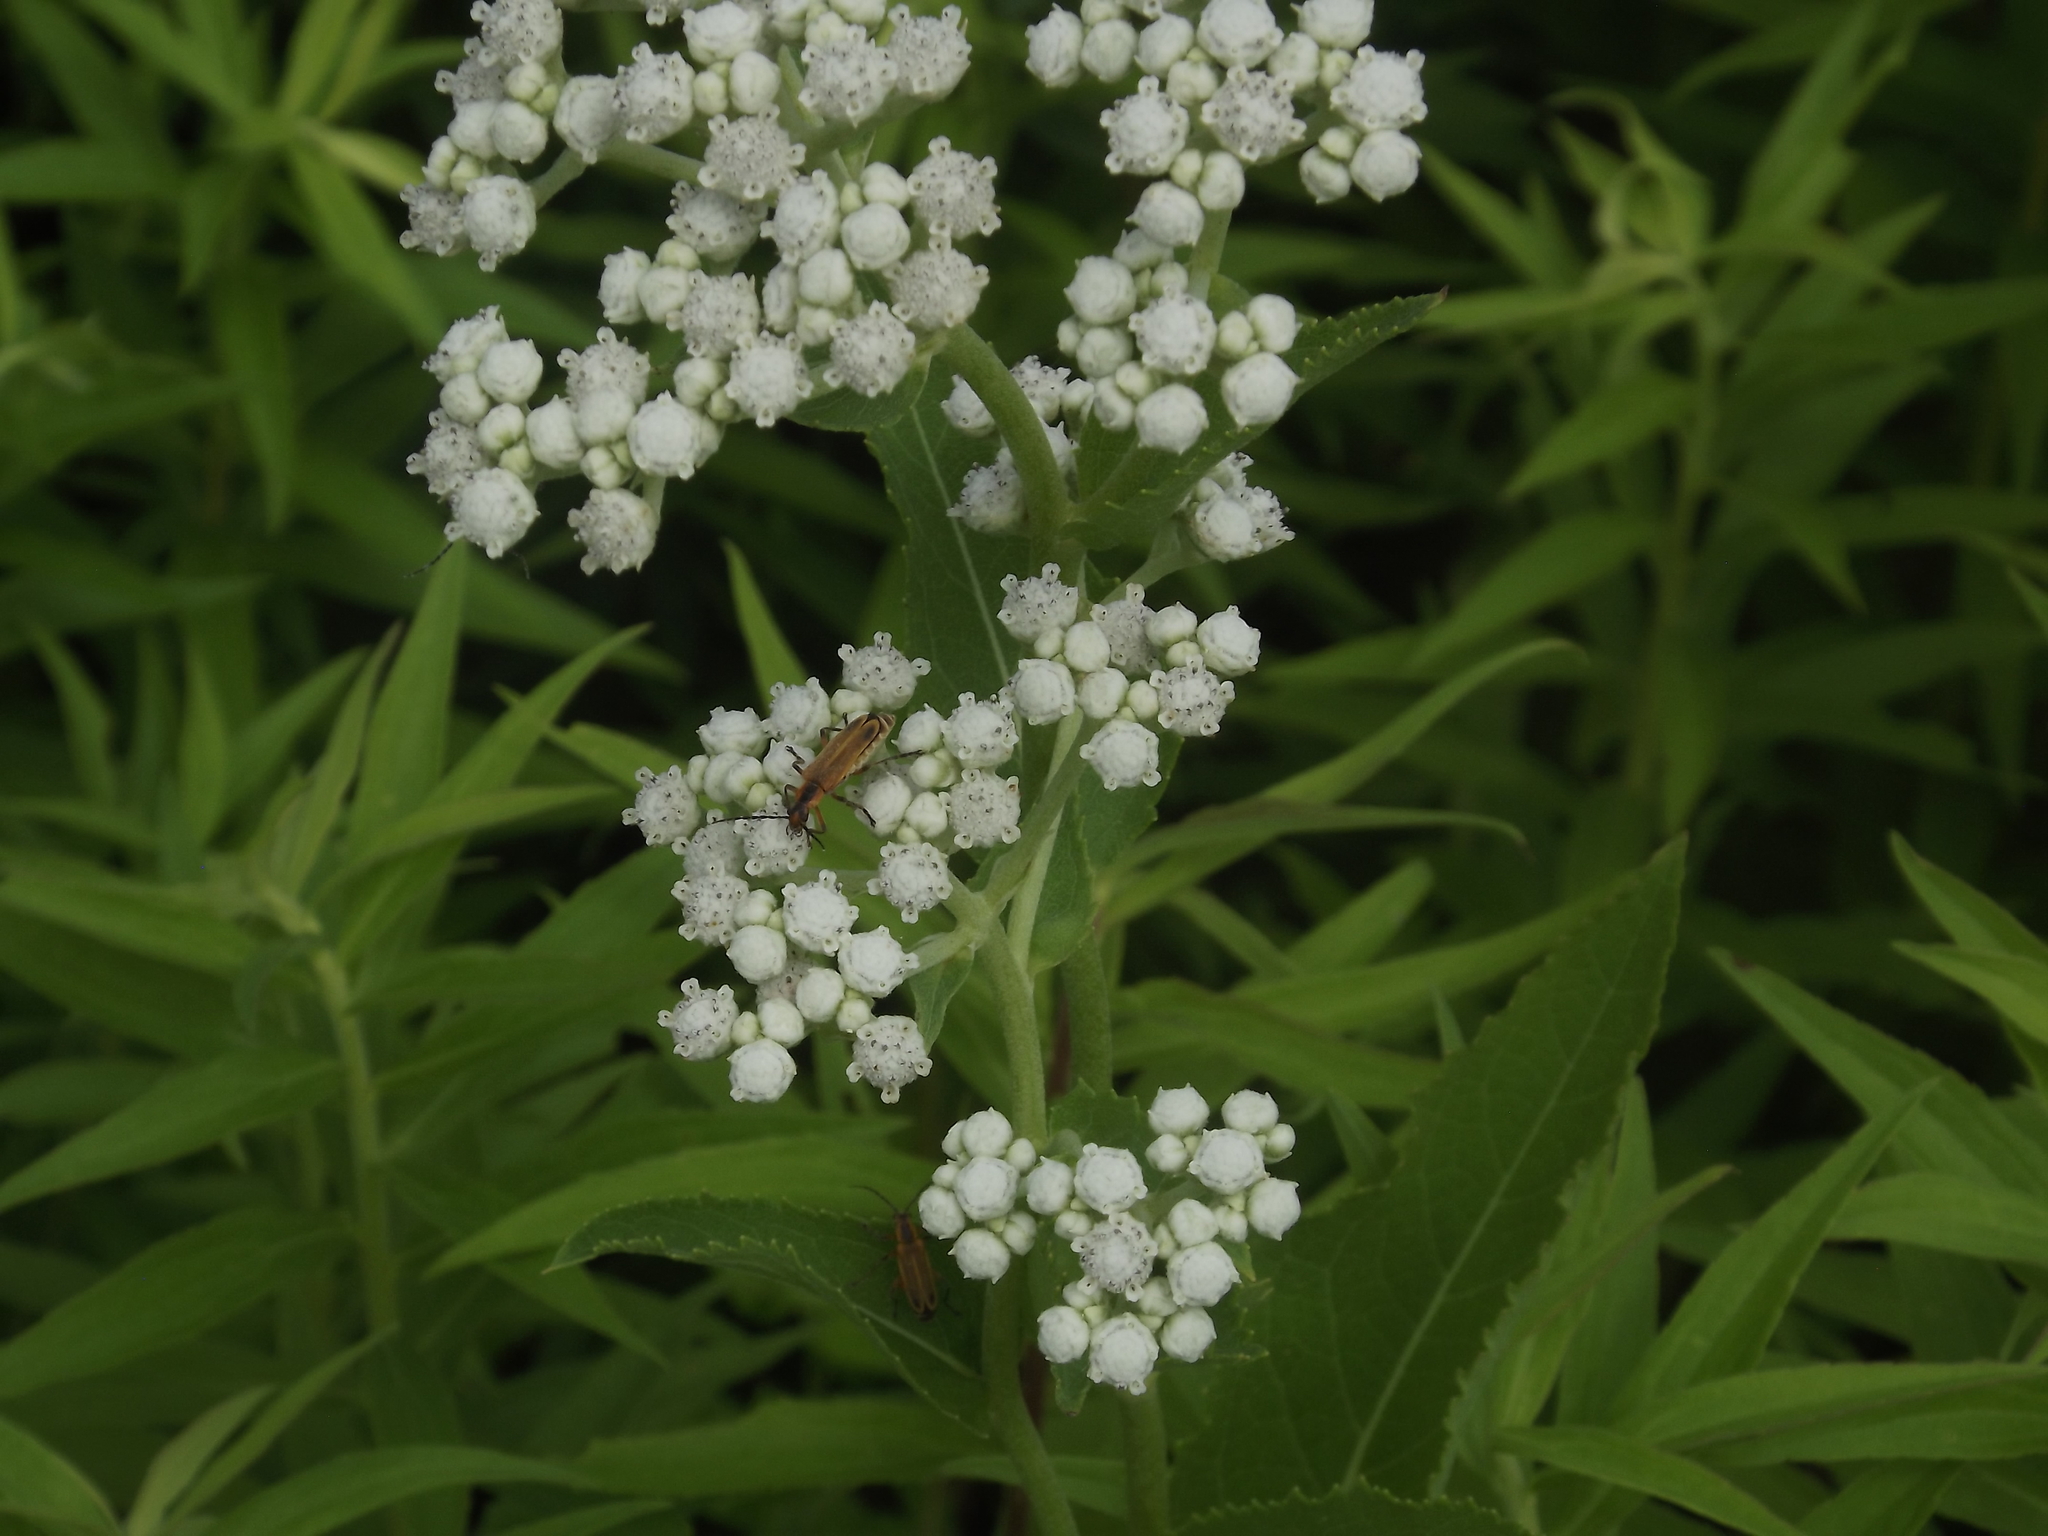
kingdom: Plantae
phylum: Tracheophyta
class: Magnoliopsida
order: Asterales
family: Asteraceae
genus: Parthenium
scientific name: Parthenium integrifolium
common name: American feverfew
